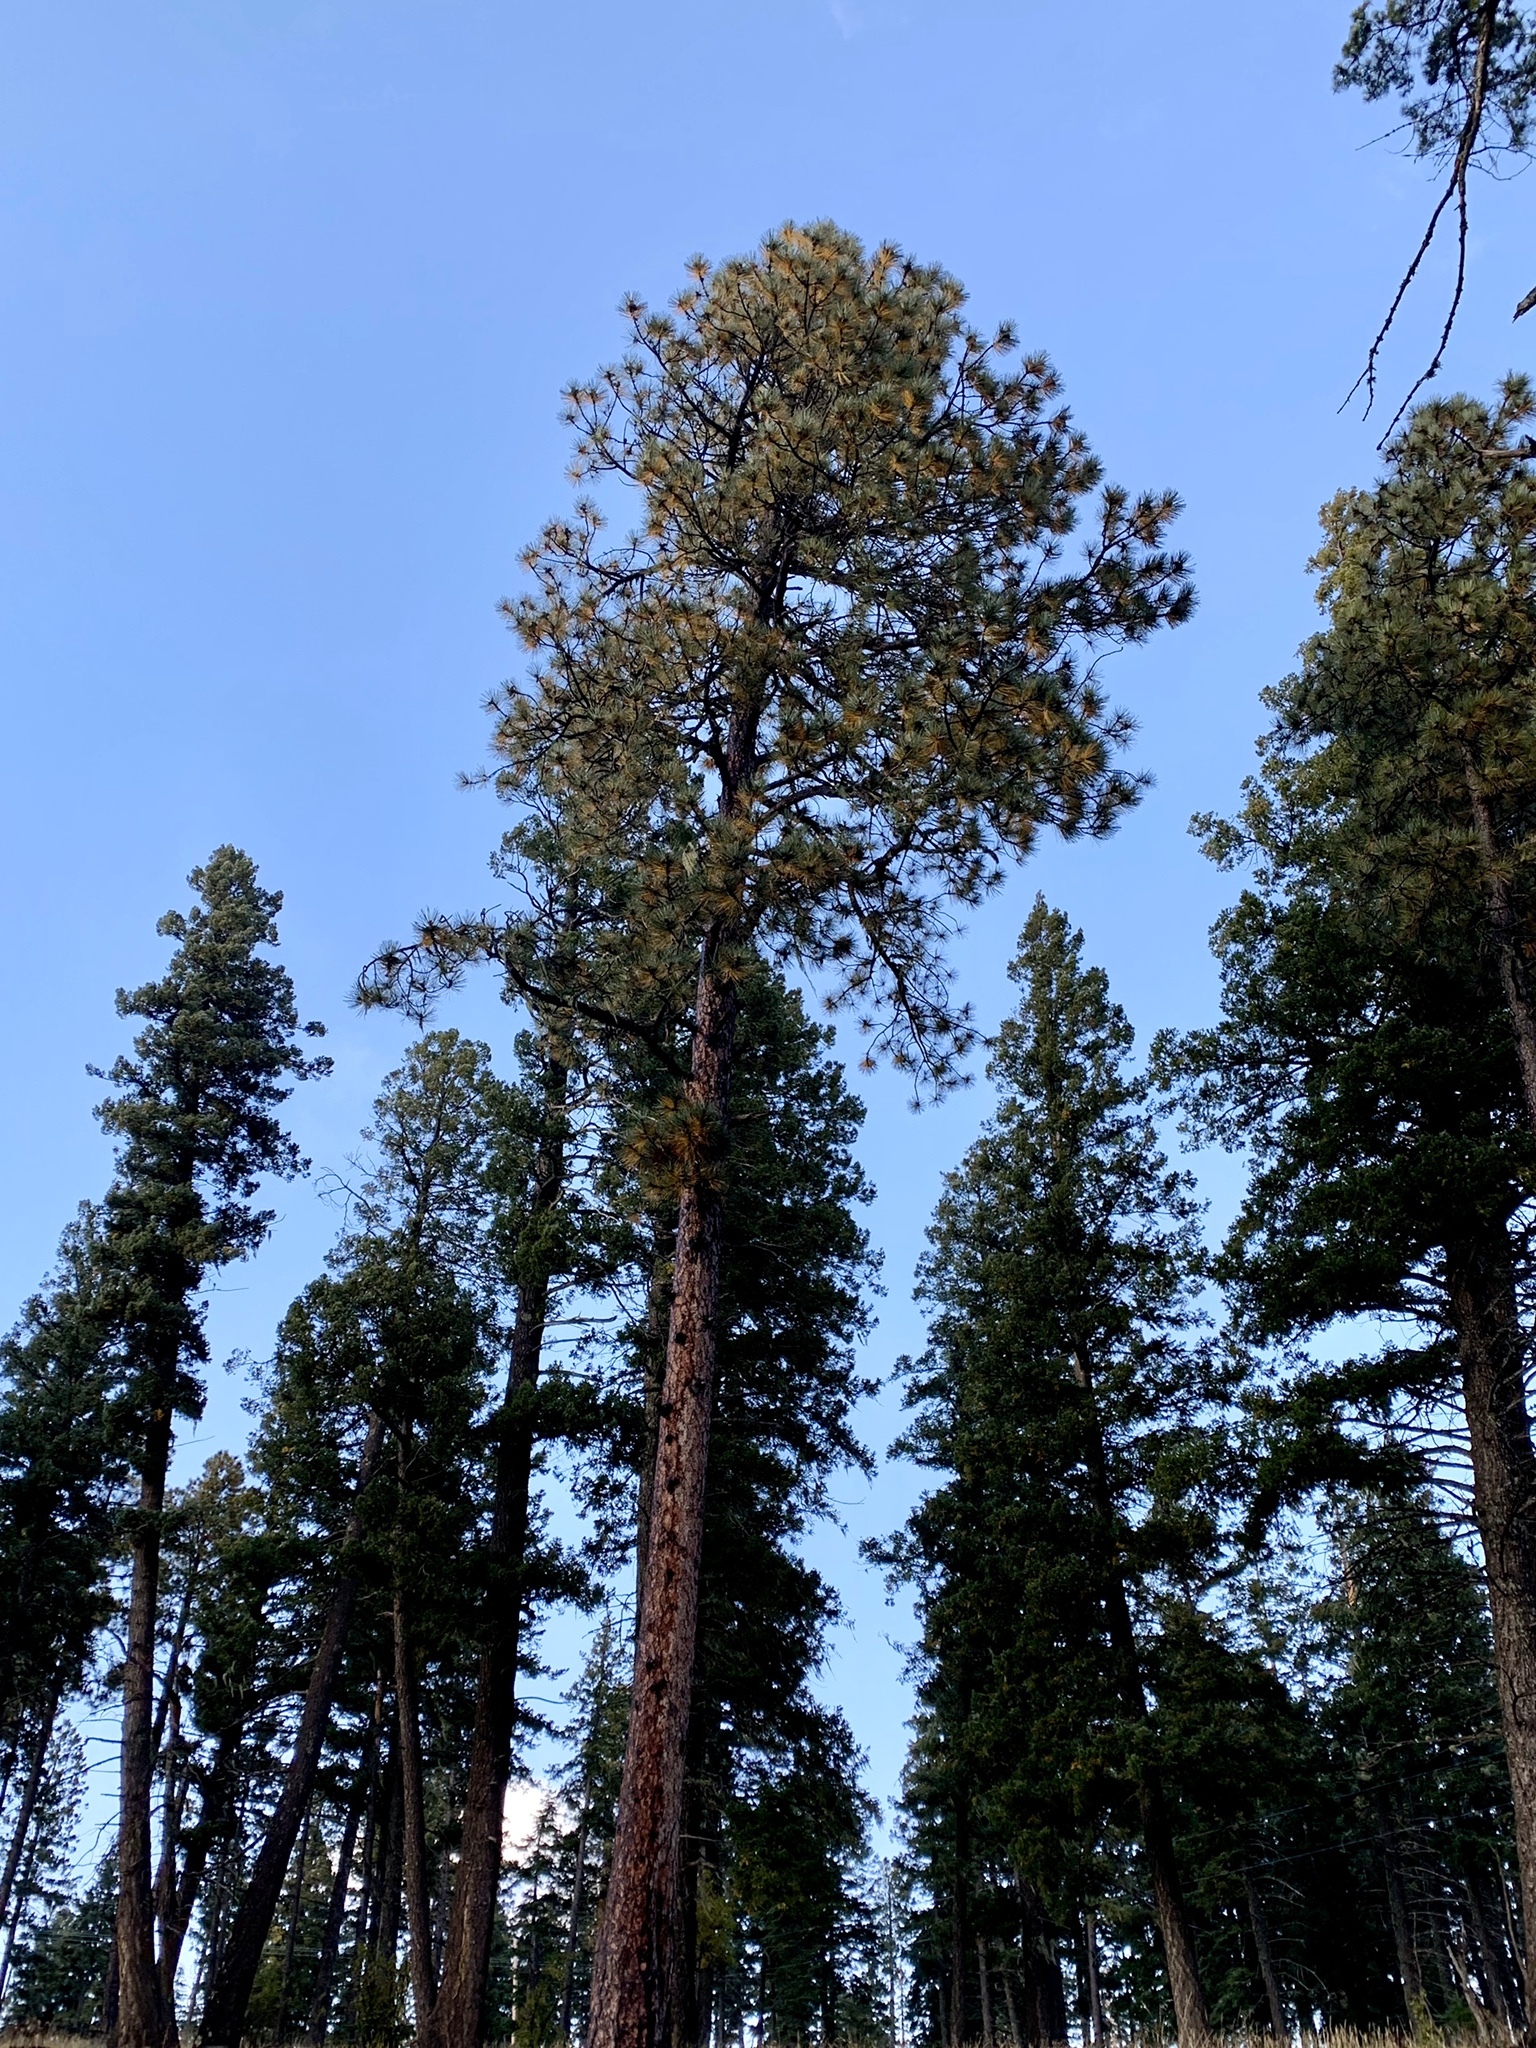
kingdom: Plantae
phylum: Tracheophyta
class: Pinopsida
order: Pinales
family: Pinaceae
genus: Pinus
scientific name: Pinus ponderosa
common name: Western yellow-pine
